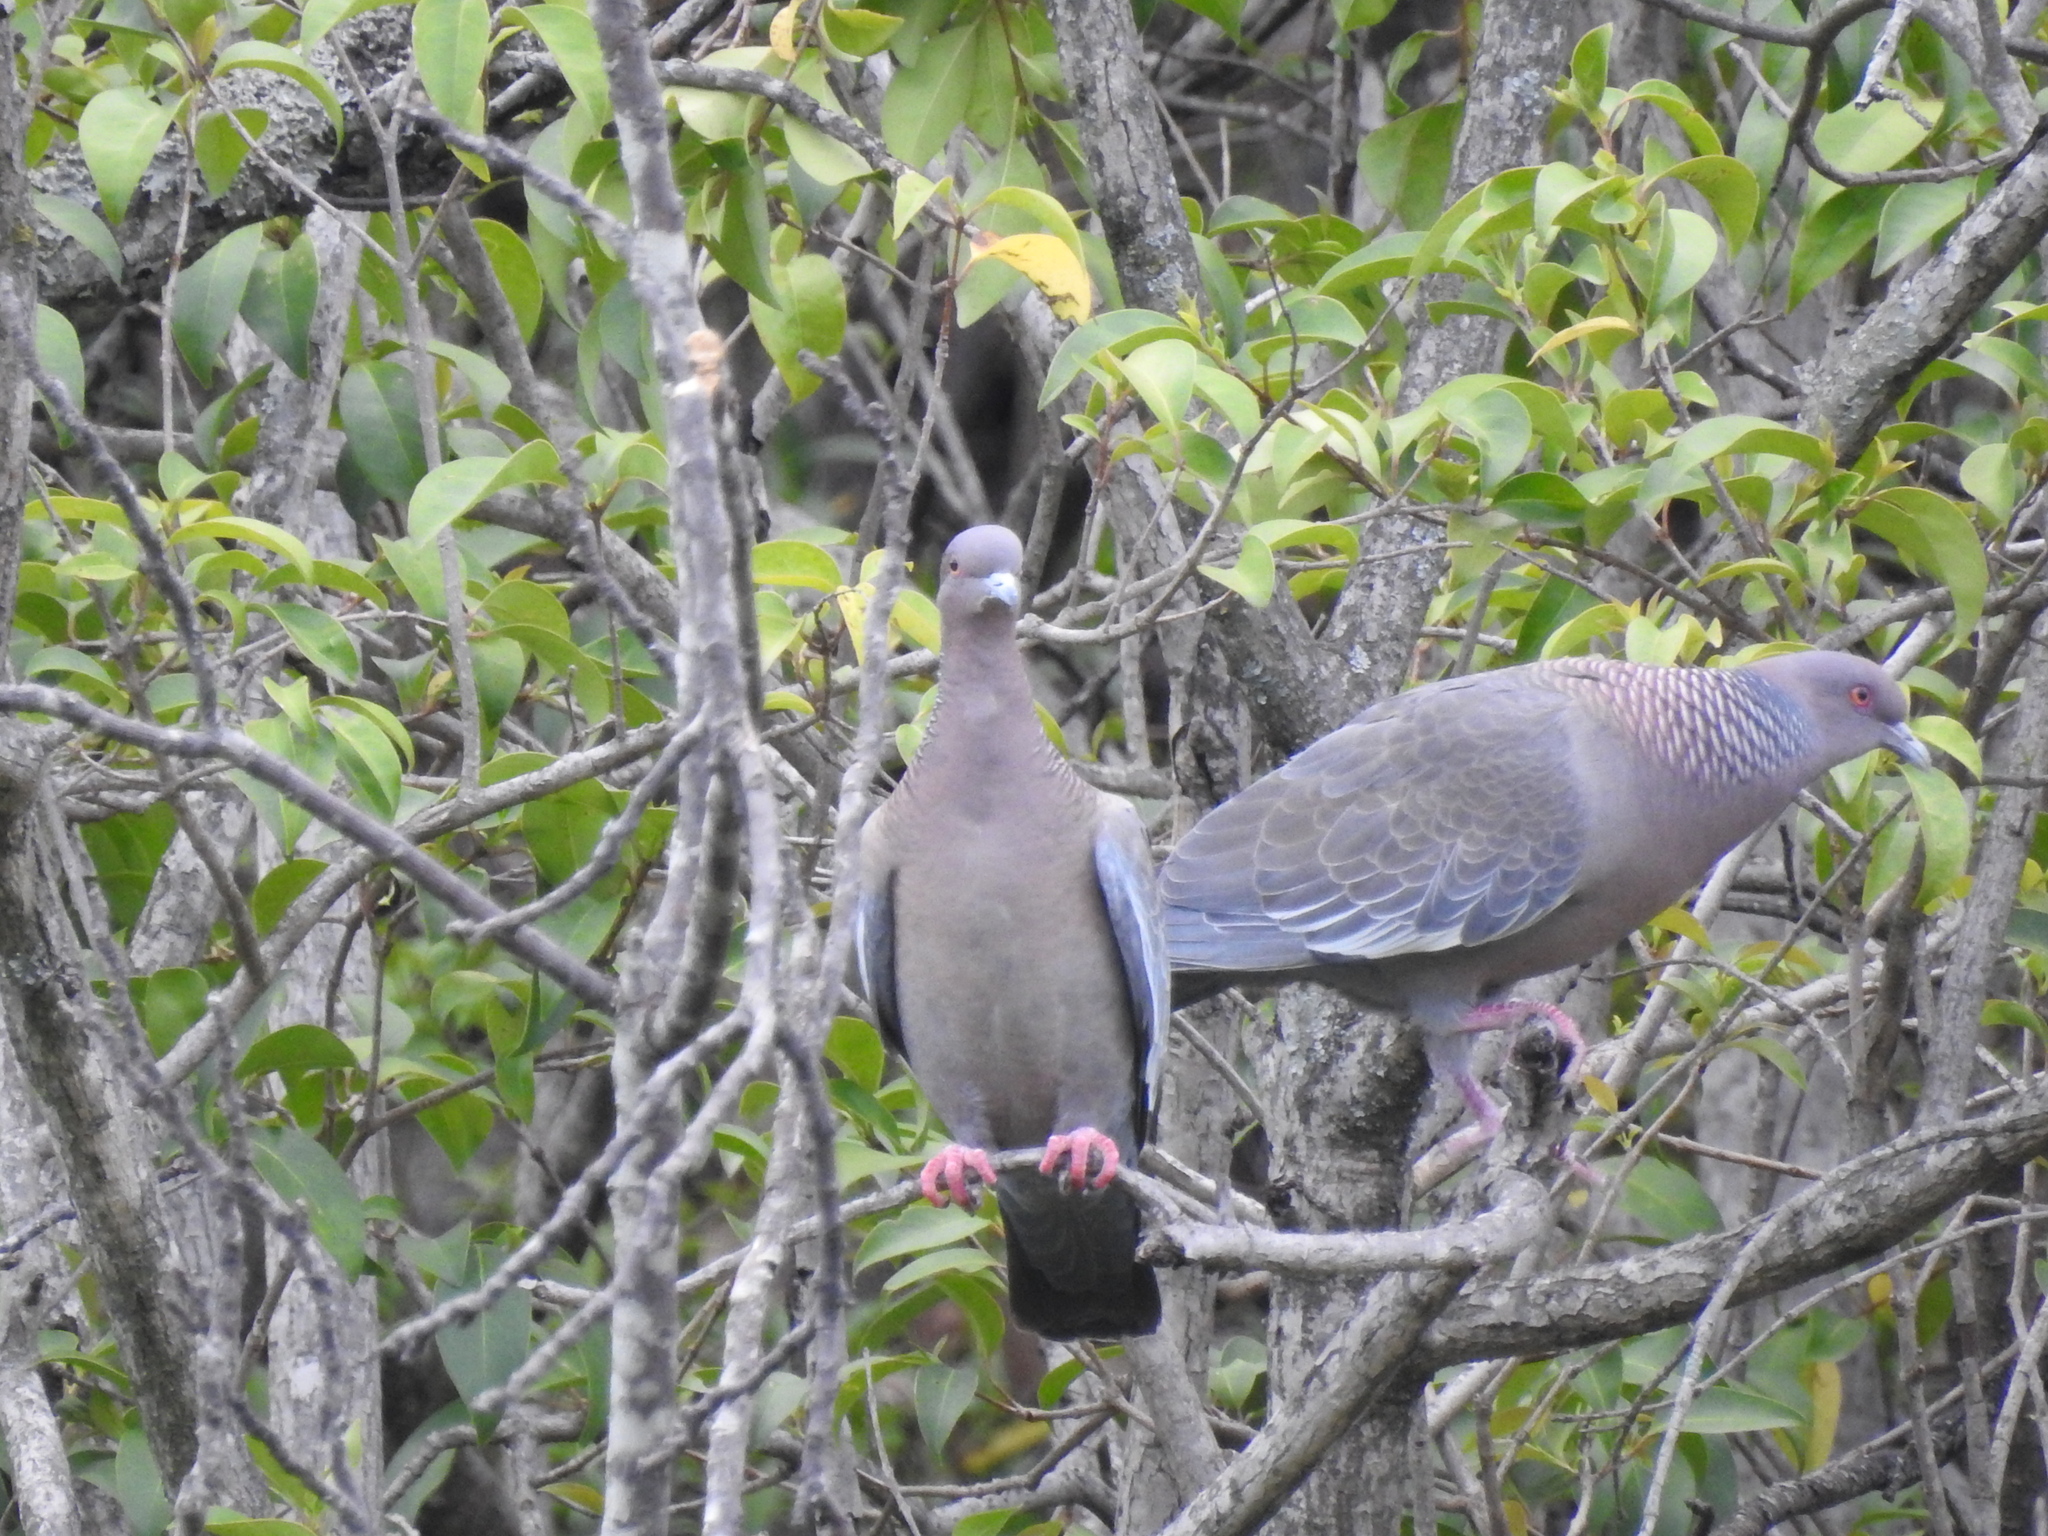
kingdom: Animalia
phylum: Chordata
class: Aves
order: Columbiformes
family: Columbidae
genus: Patagioenas
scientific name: Patagioenas picazuro
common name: Picazuro pigeon
